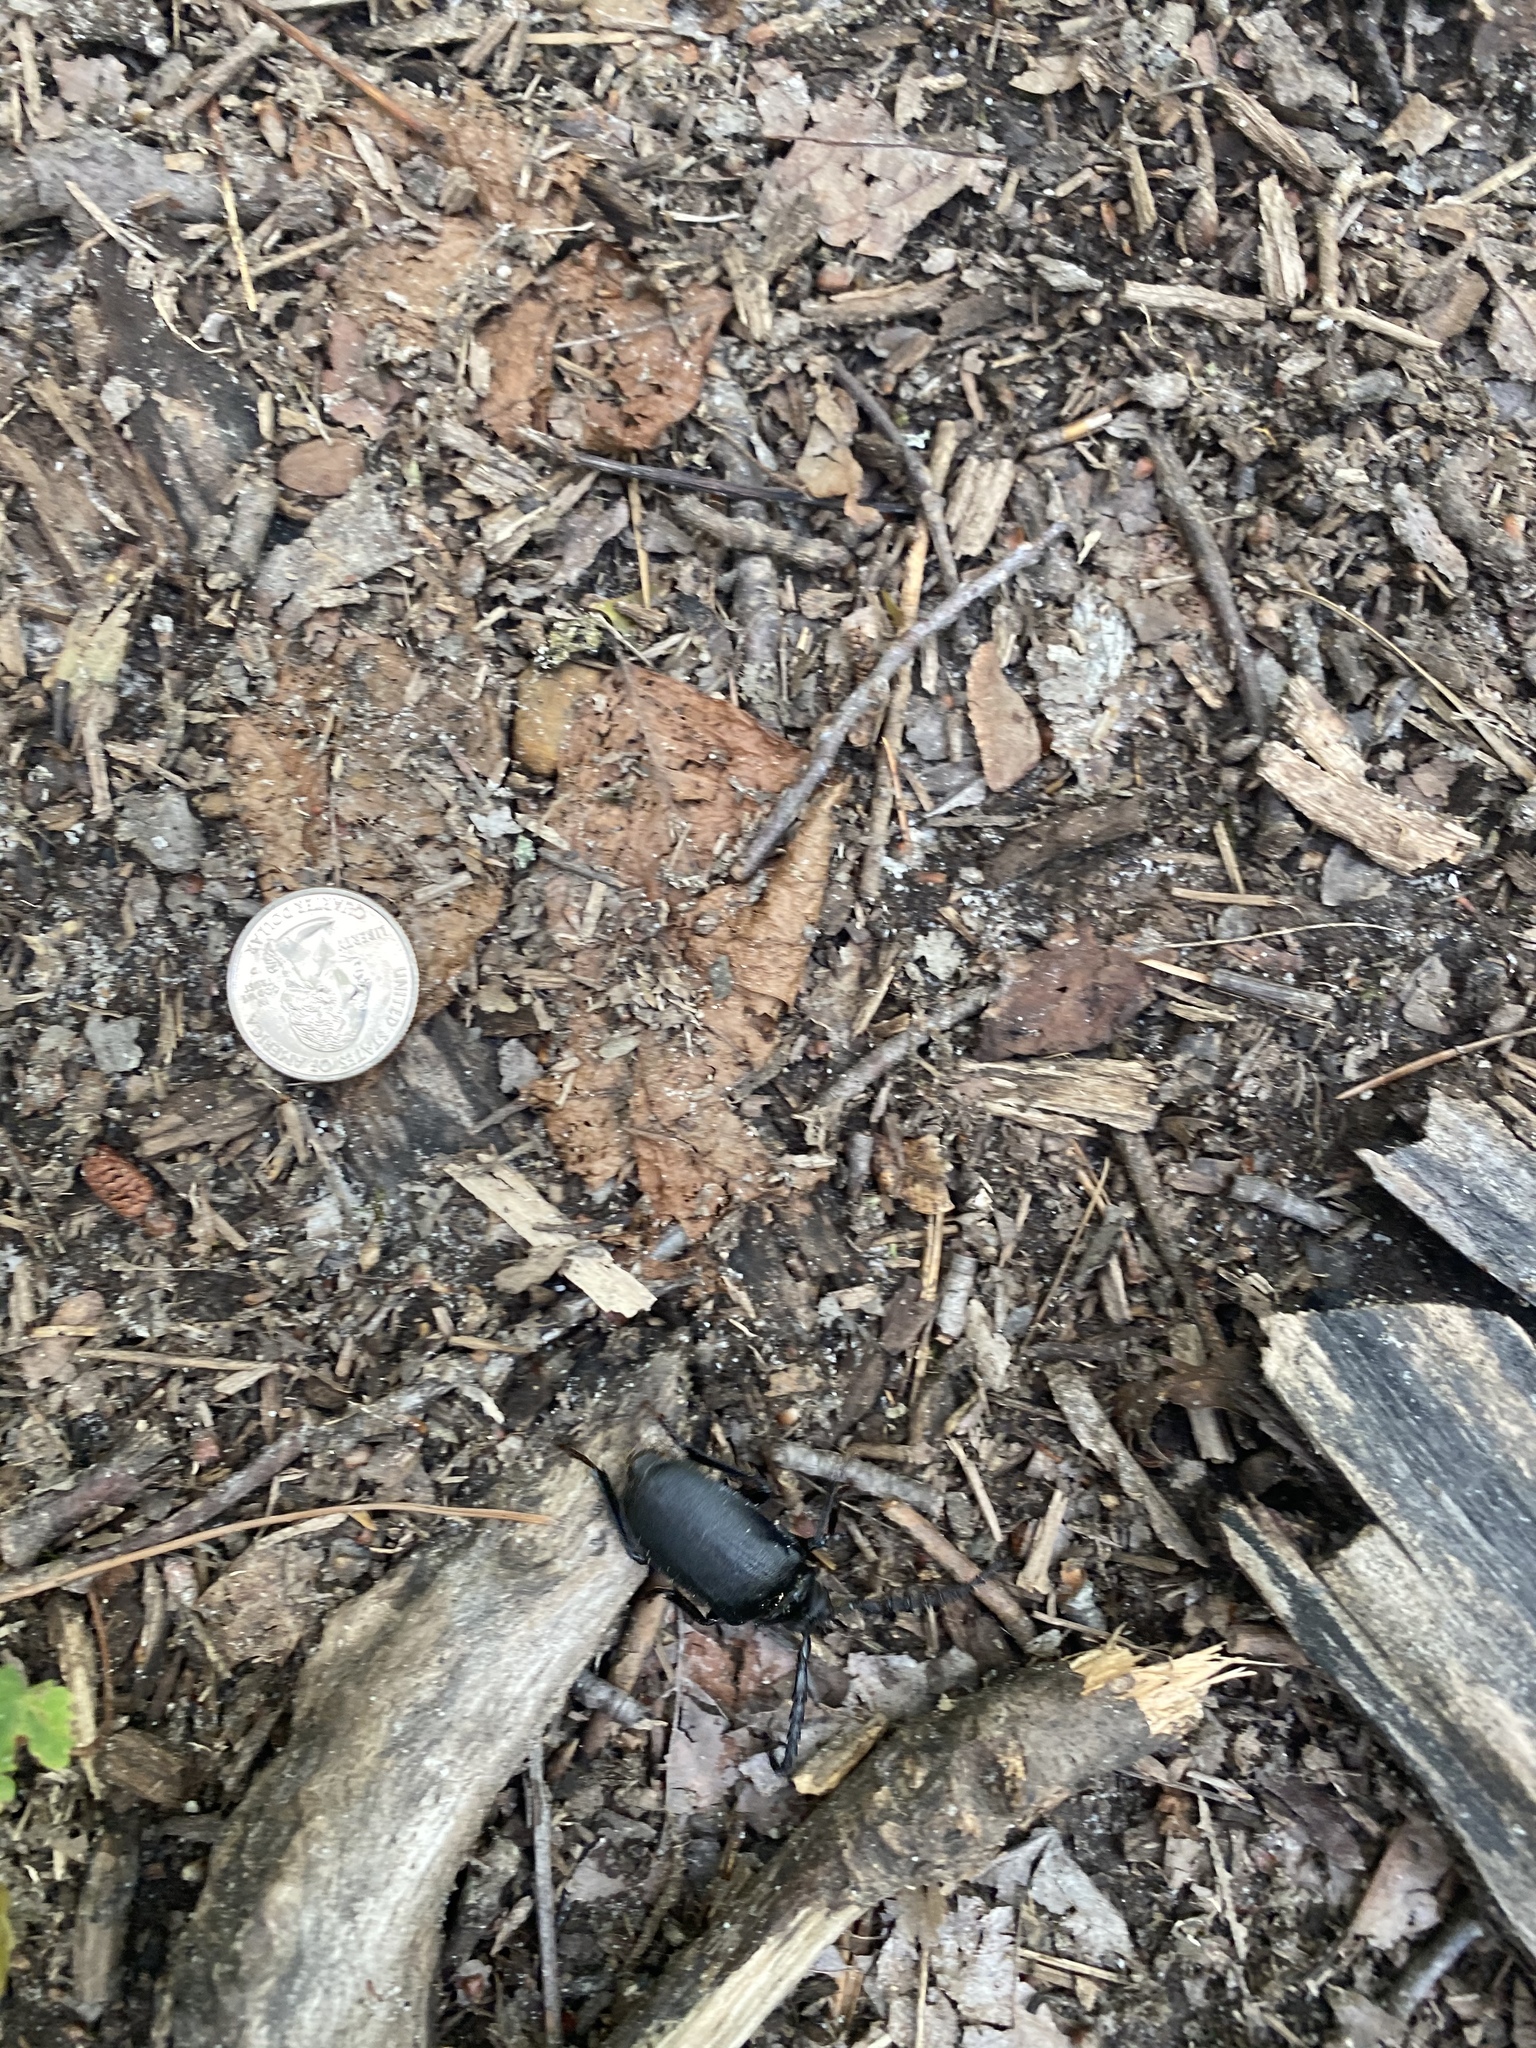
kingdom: Animalia
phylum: Arthropoda
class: Insecta
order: Coleoptera
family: Cerambycidae
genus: Prionus
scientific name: Prionus laticollis
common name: Broad necked prionus
